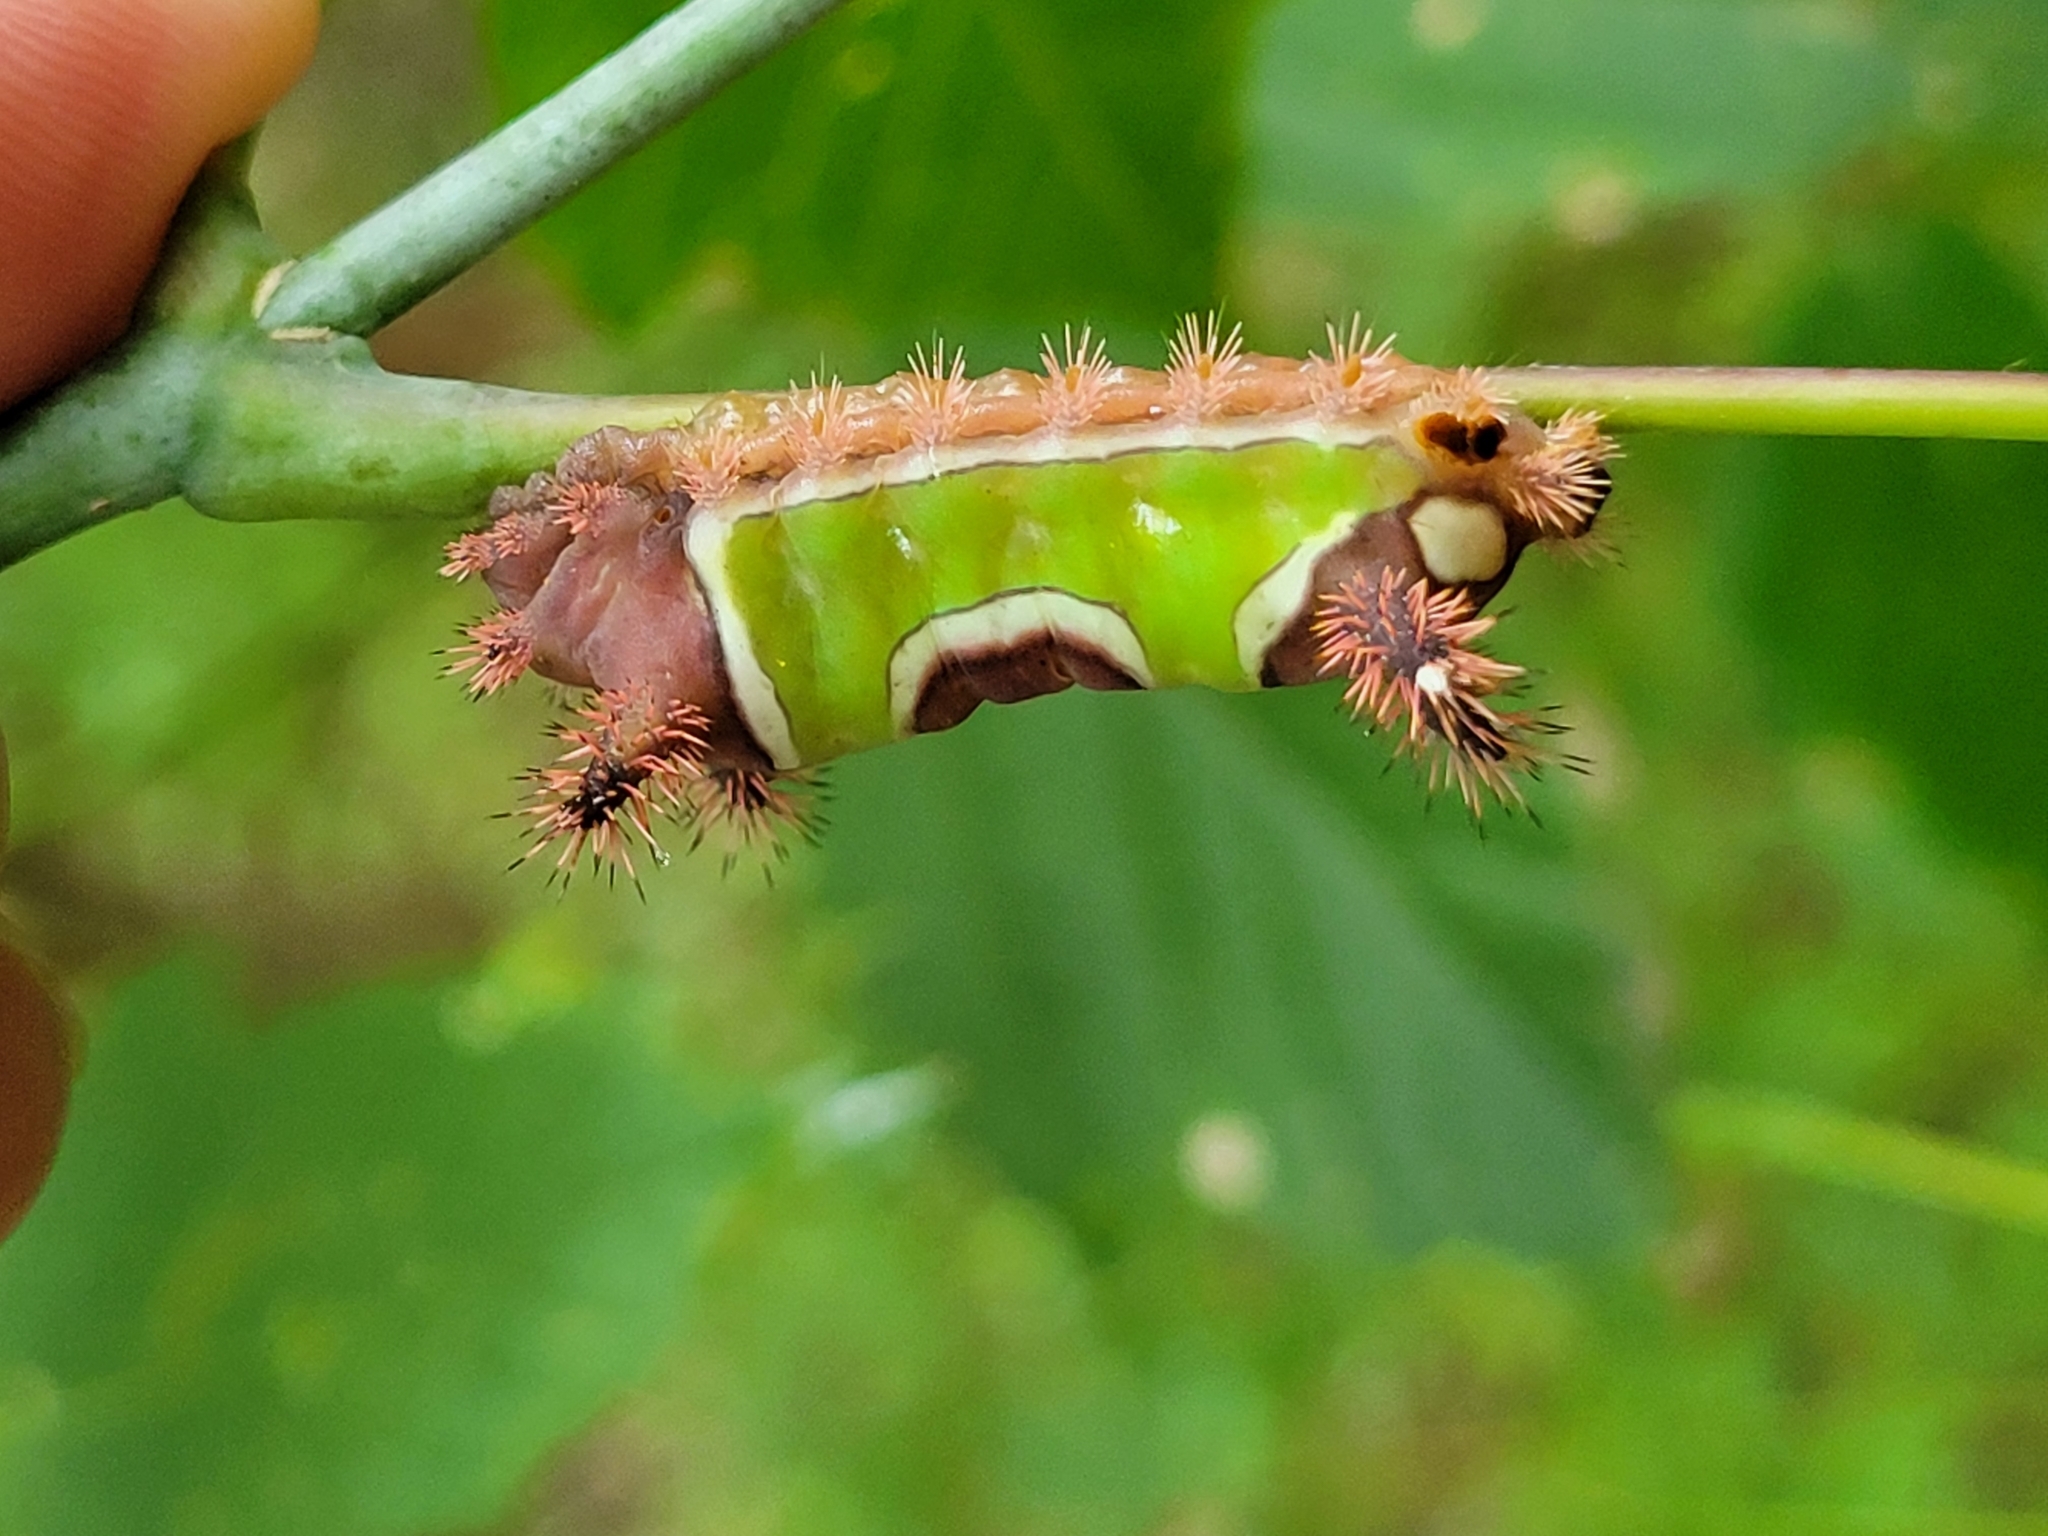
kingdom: Animalia
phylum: Arthropoda
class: Insecta
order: Lepidoptera
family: Limacodidae
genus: Acharia
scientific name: Acharia stimulea
